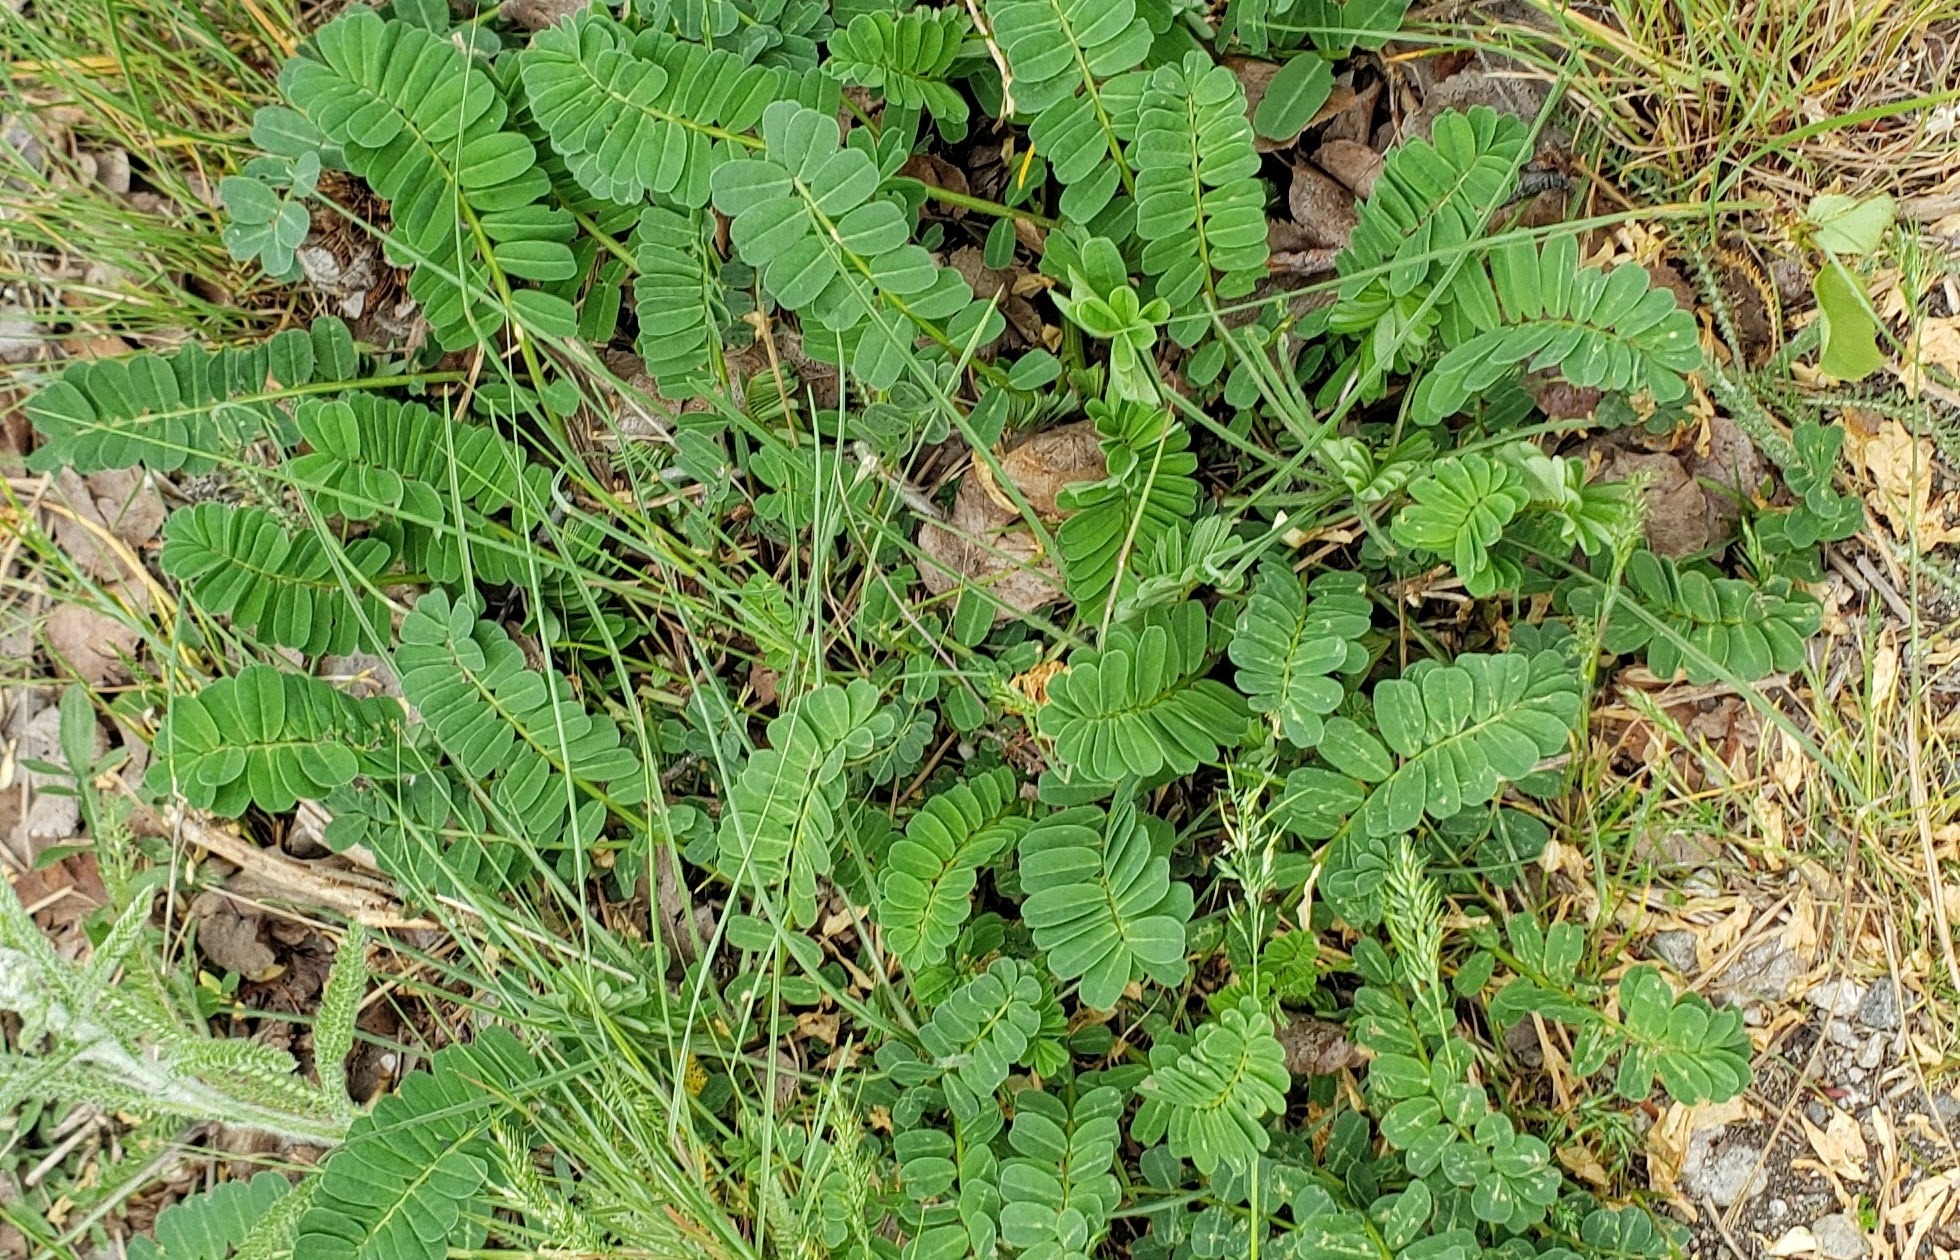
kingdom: Plantae
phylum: Tracheophyta
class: Magnoliopsida
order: Fabales
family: Fabaceae
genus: Coronilla
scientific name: Coronilla varia
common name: Crownvetch
